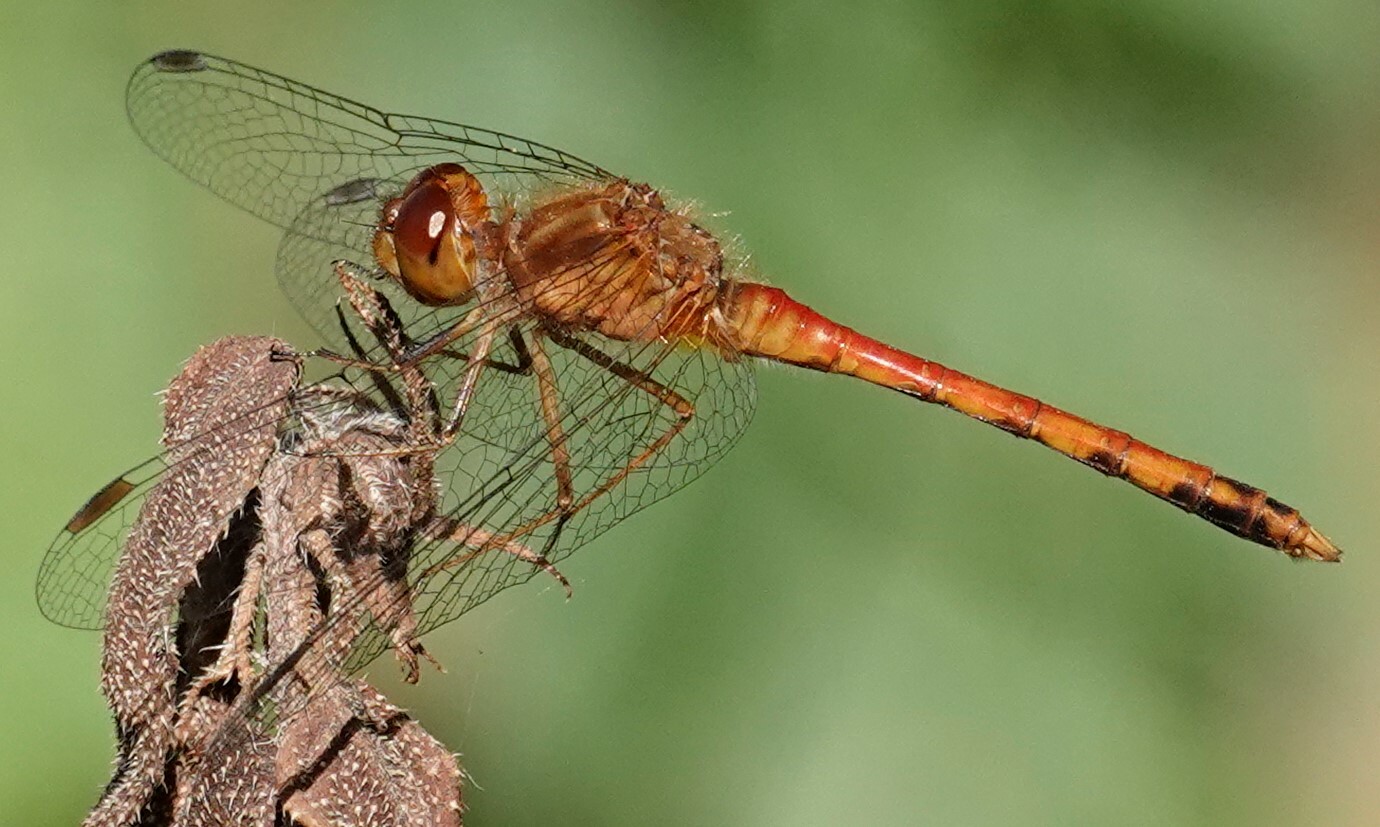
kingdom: Animalia
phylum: Arthropoda
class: Insecta
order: Odonata
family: Libellulidae
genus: Sympetrum
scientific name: Sympetrum vicinum
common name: Autumn meadowhawk
